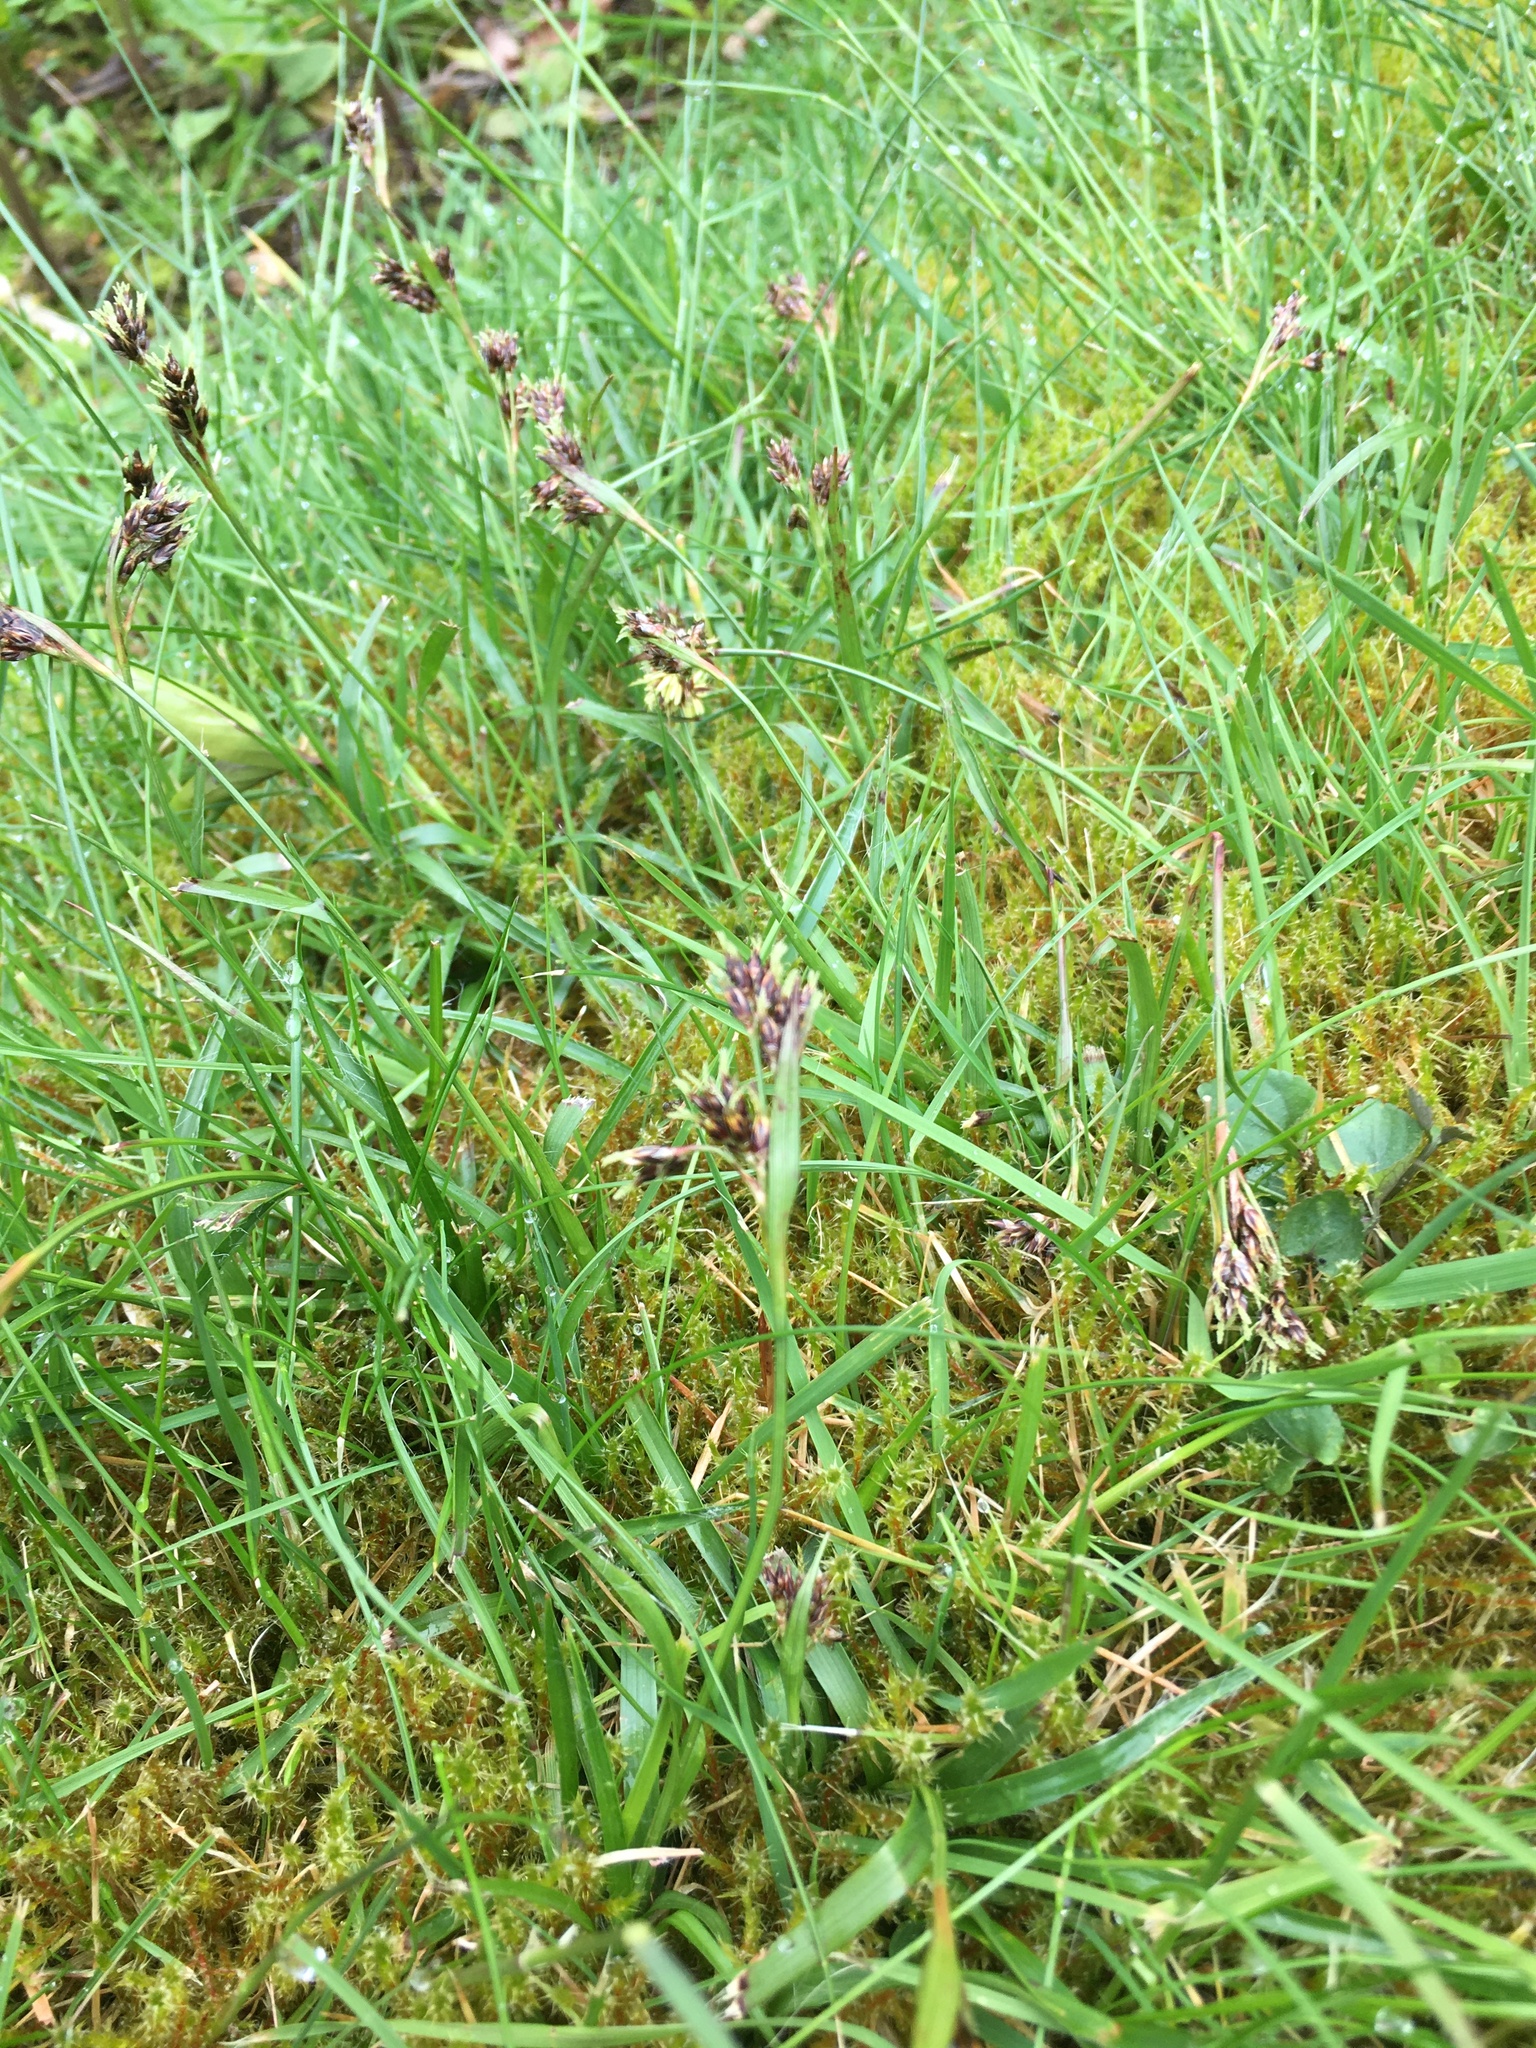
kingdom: Plantae
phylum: Tracheophyta
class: Liliopsida
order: Poales
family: Juncaceae
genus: Luzula
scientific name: Luzula campestris
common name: Field wood-rush
